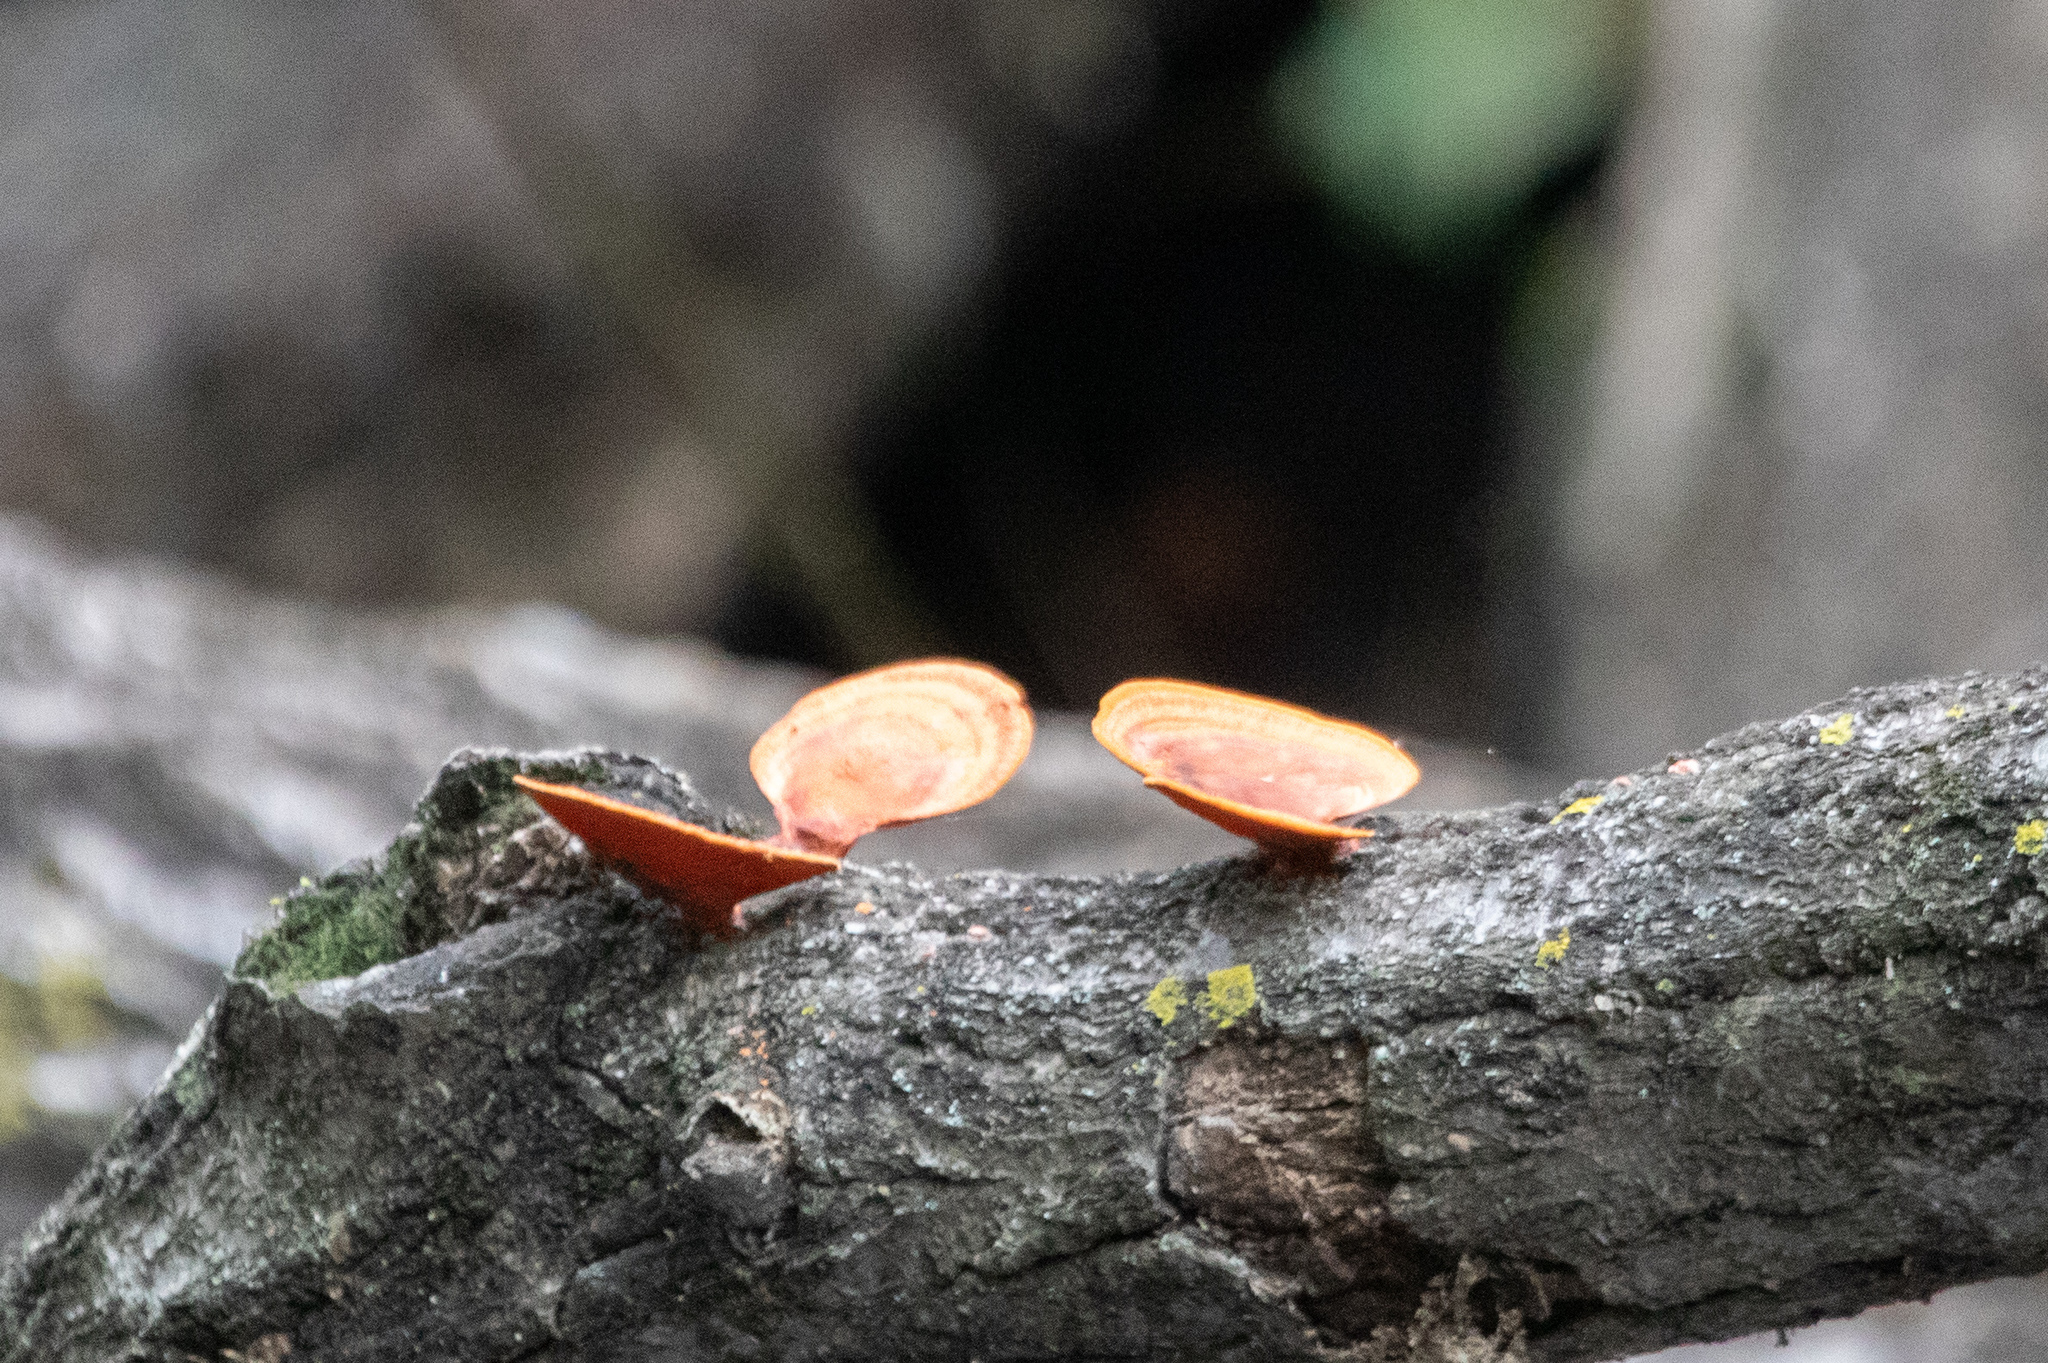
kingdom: Fungi
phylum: Basidiomycota
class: Agaricomycetes
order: Polyporales
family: Polyporaceae
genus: Trametes
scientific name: Trametes coccinea
